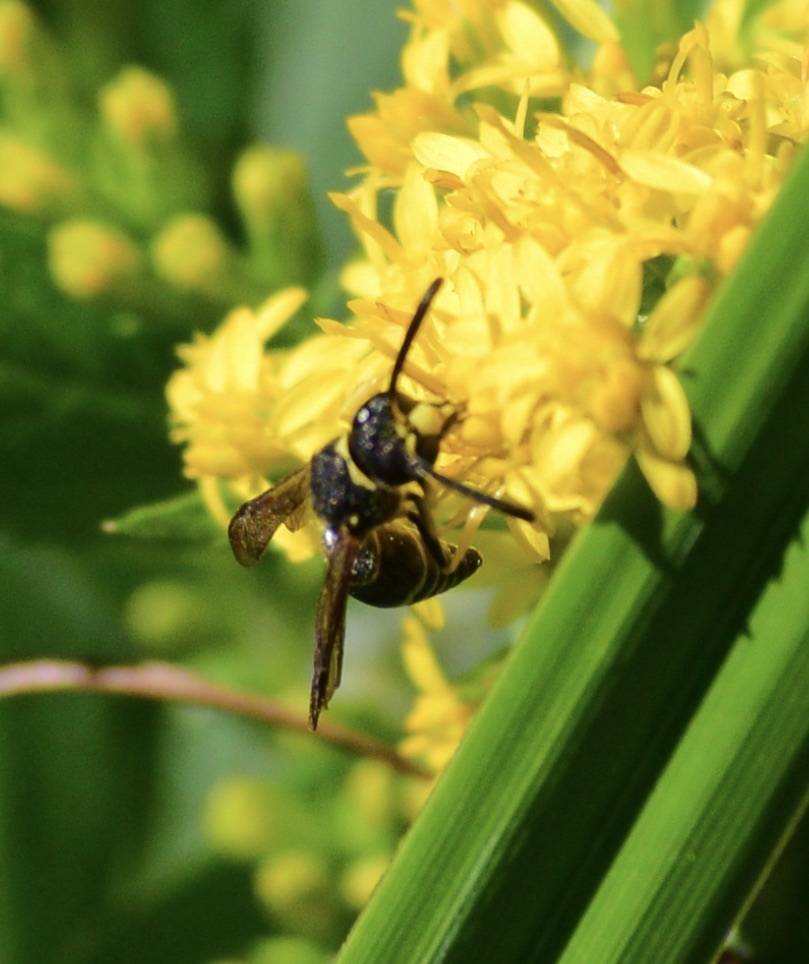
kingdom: Animalia
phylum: Arthropoda
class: Insecta
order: Hymenoptera
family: Vespidae
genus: Ancistrocerus
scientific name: Ancistrocerus
